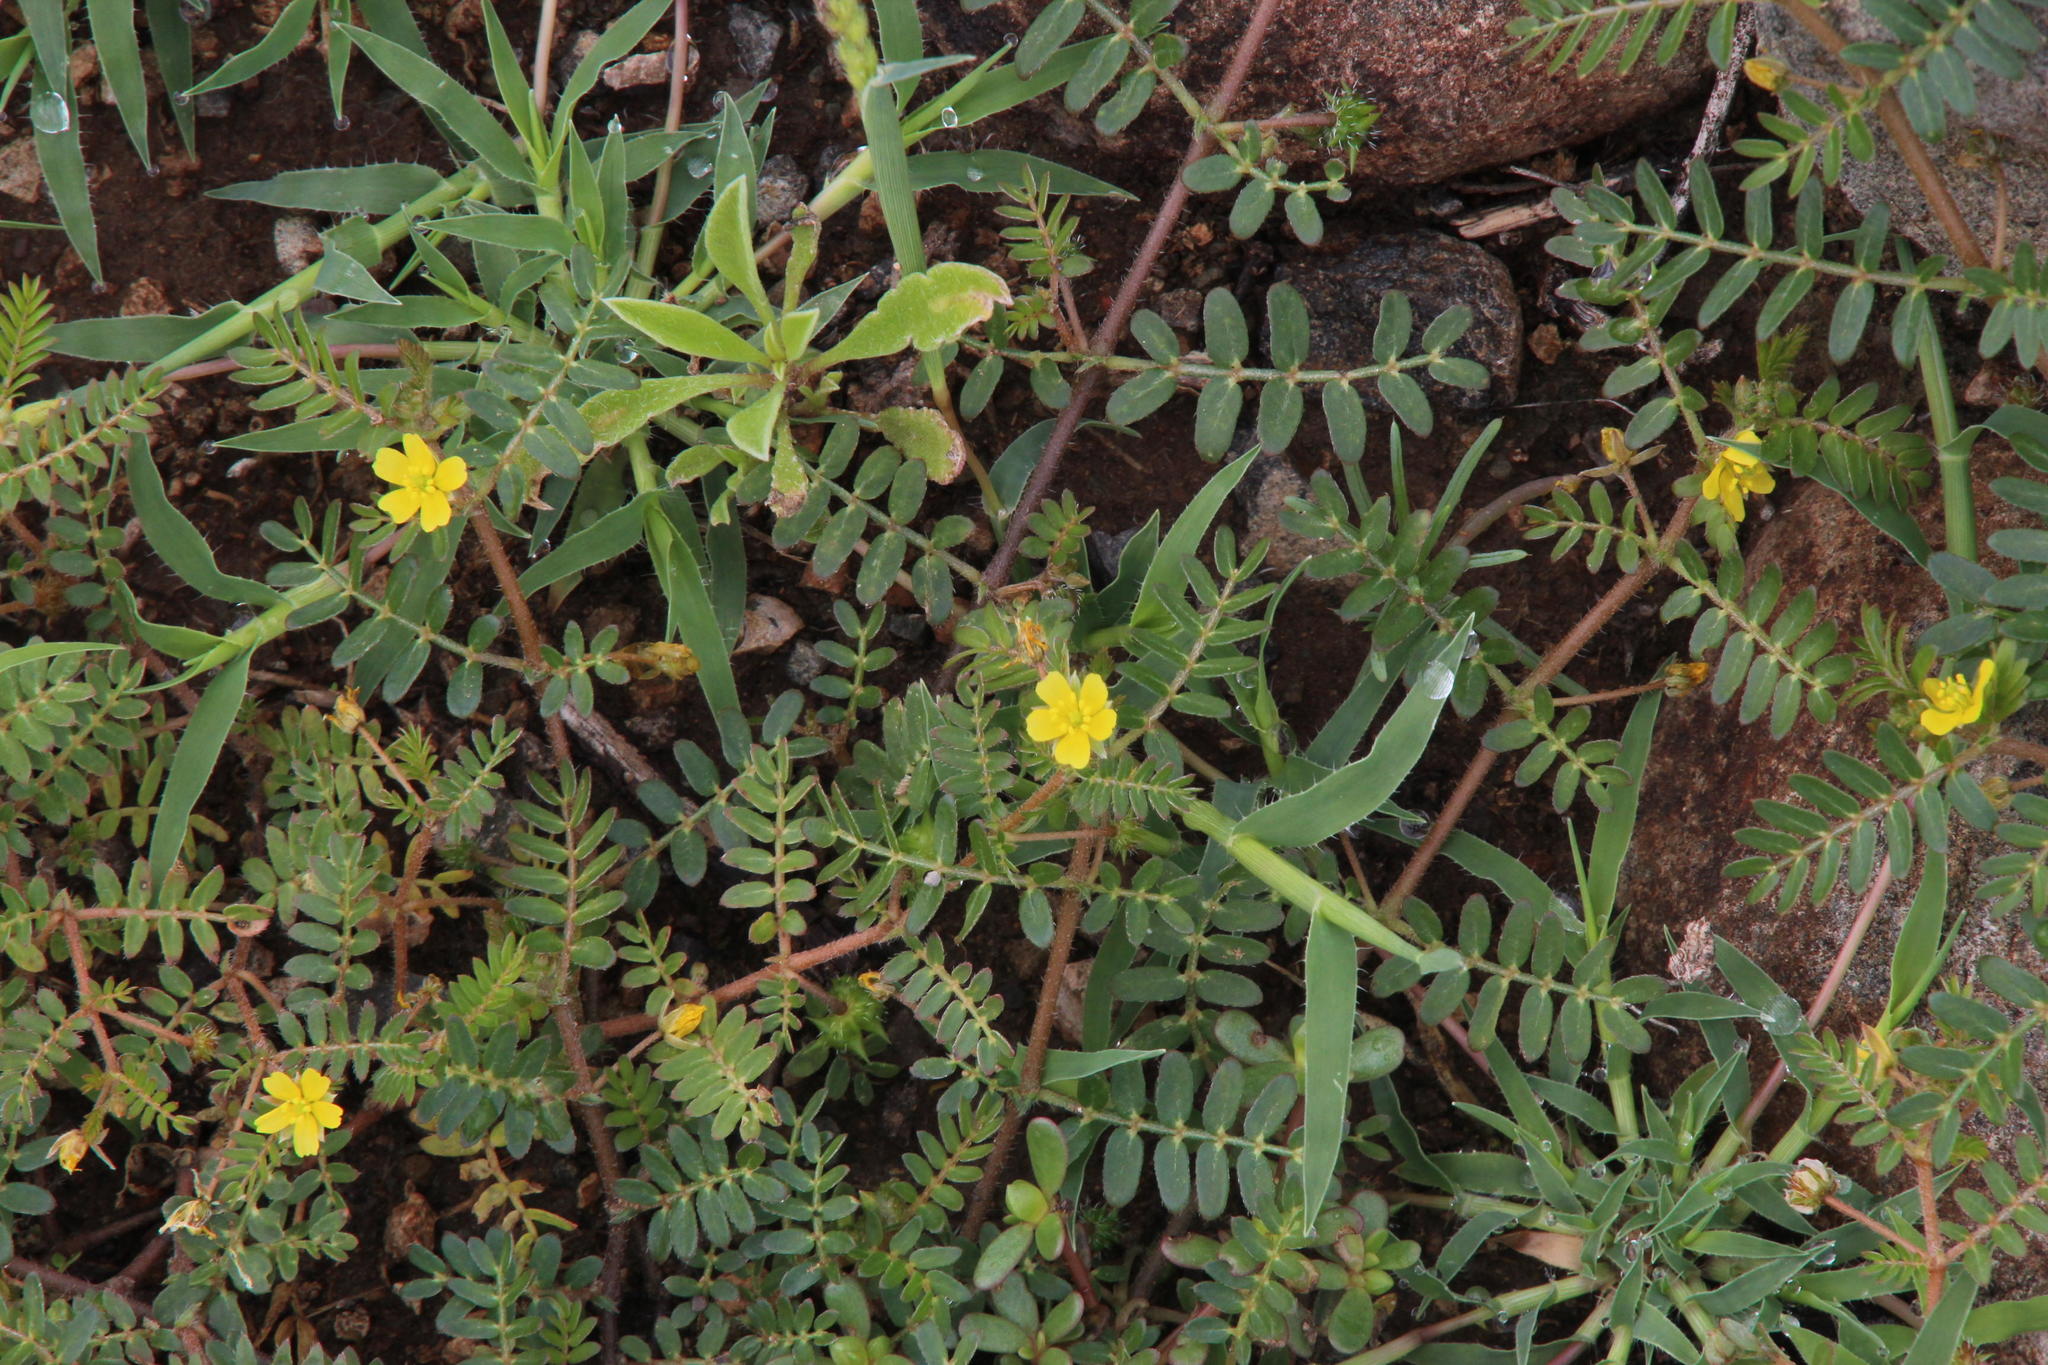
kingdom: Plantae
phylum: Tracheophyta
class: Magnoliopsida
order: Zygophyllales
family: Zygophyllaceae
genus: Tribulus
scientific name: Tribulus terrestris
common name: Puncturevine
